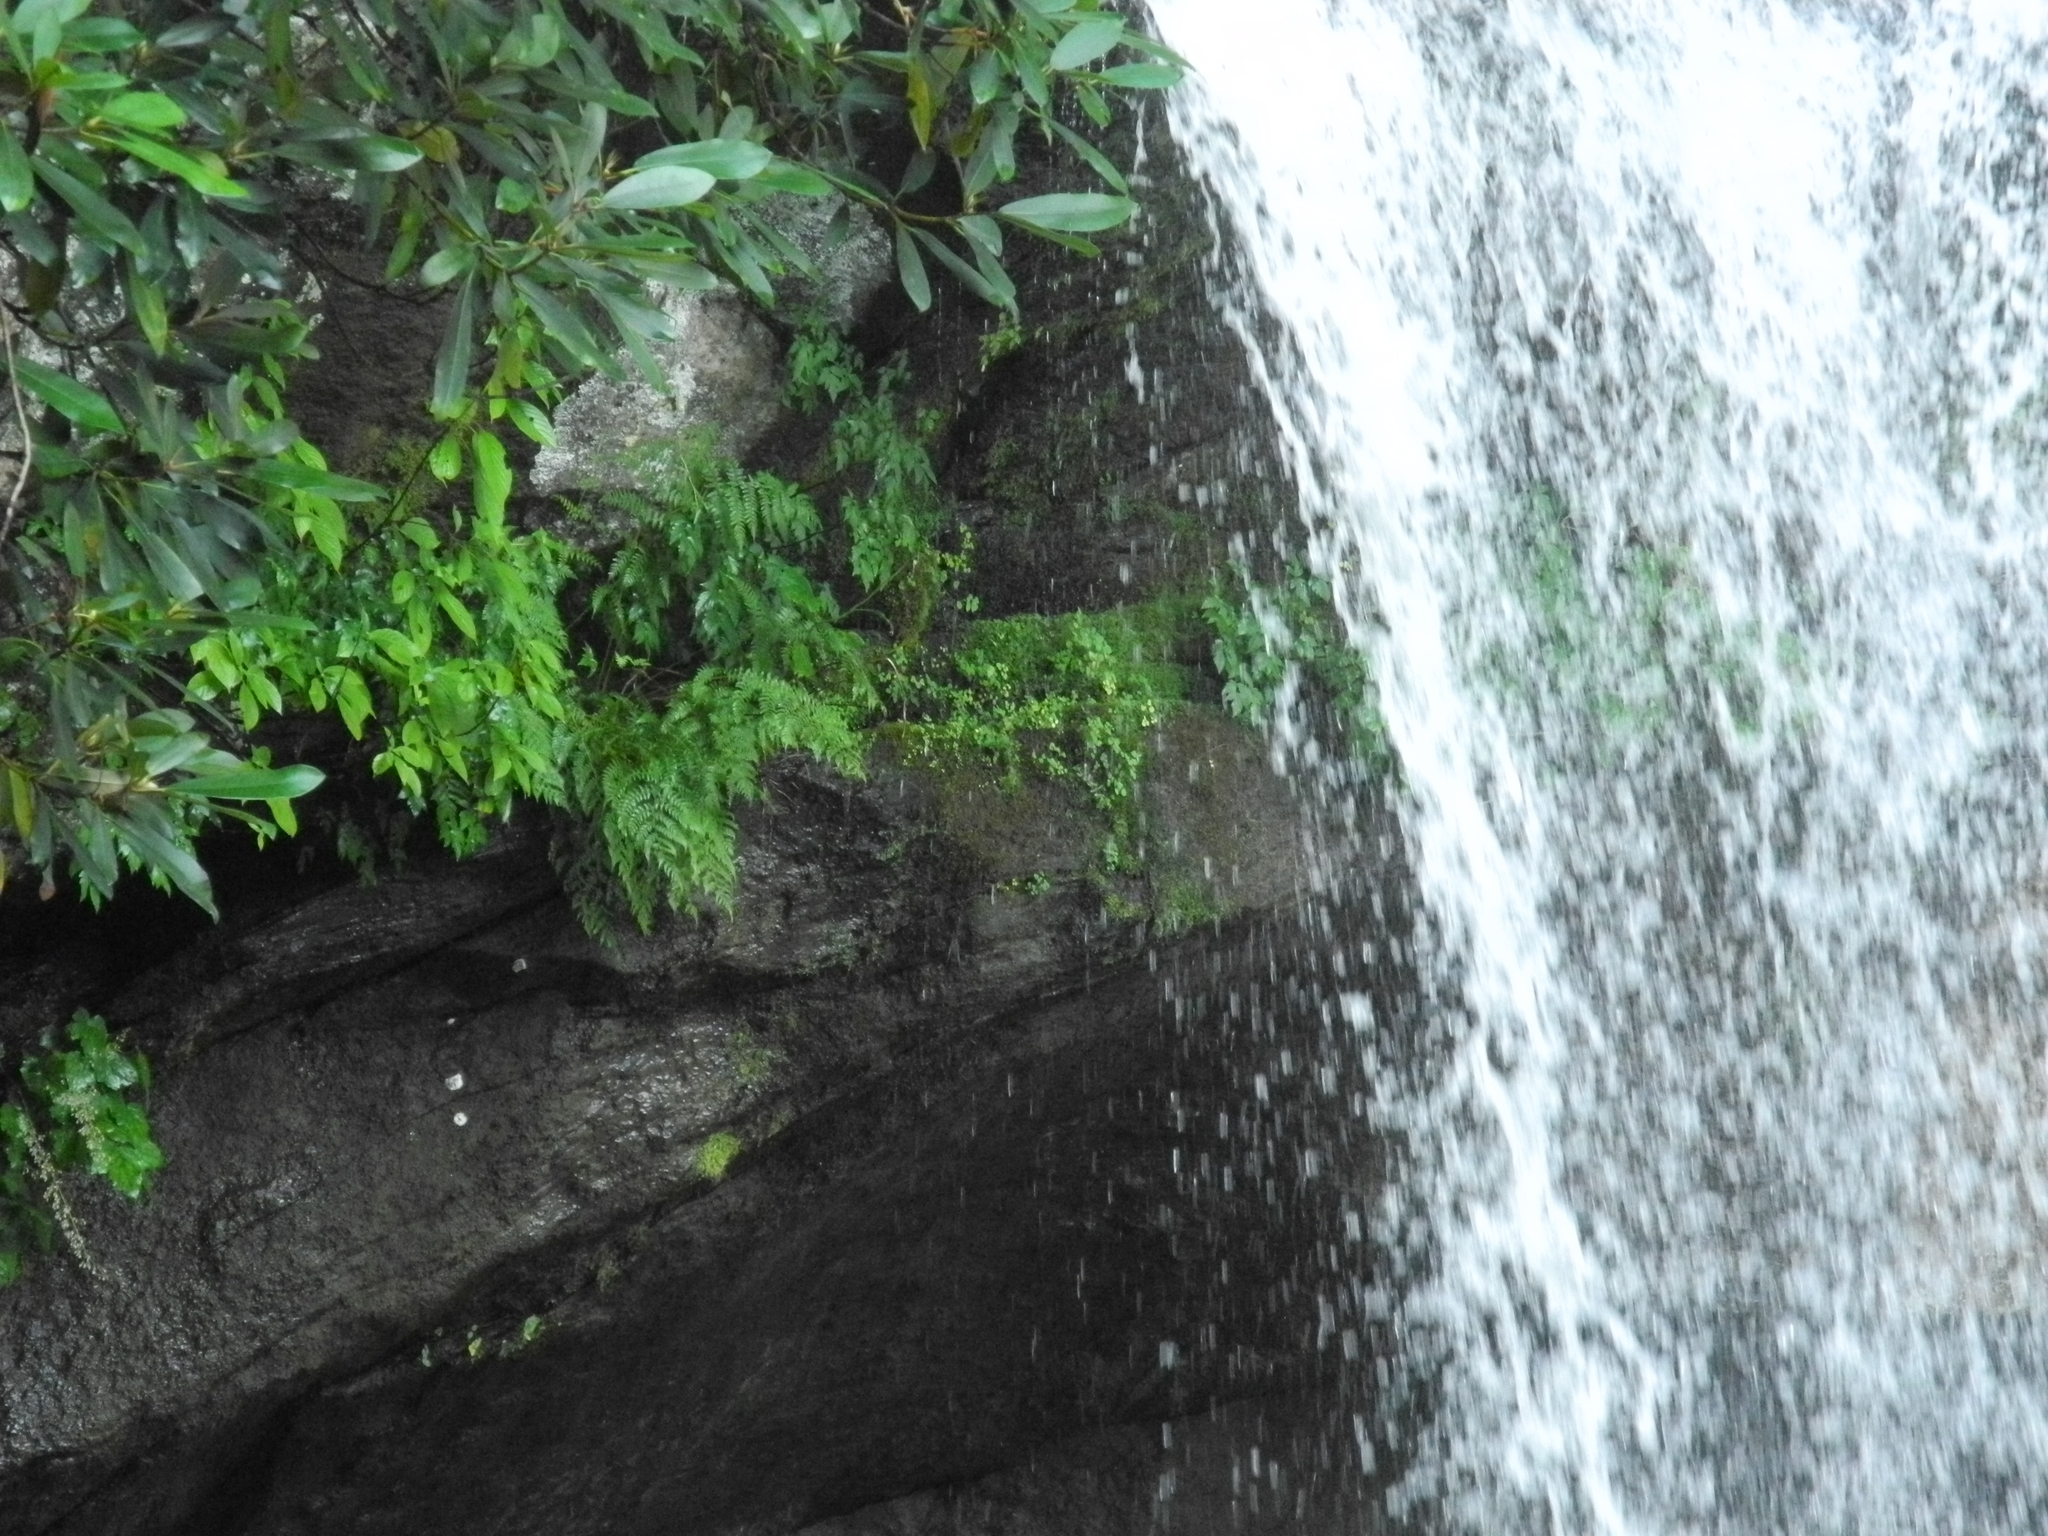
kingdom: Plantae
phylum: Tracheophyta
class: Polypodiopsida
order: Polypodiales
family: Athyriaceae
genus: Athyrium
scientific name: Athyrium asplenioides
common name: Southern lady fern
